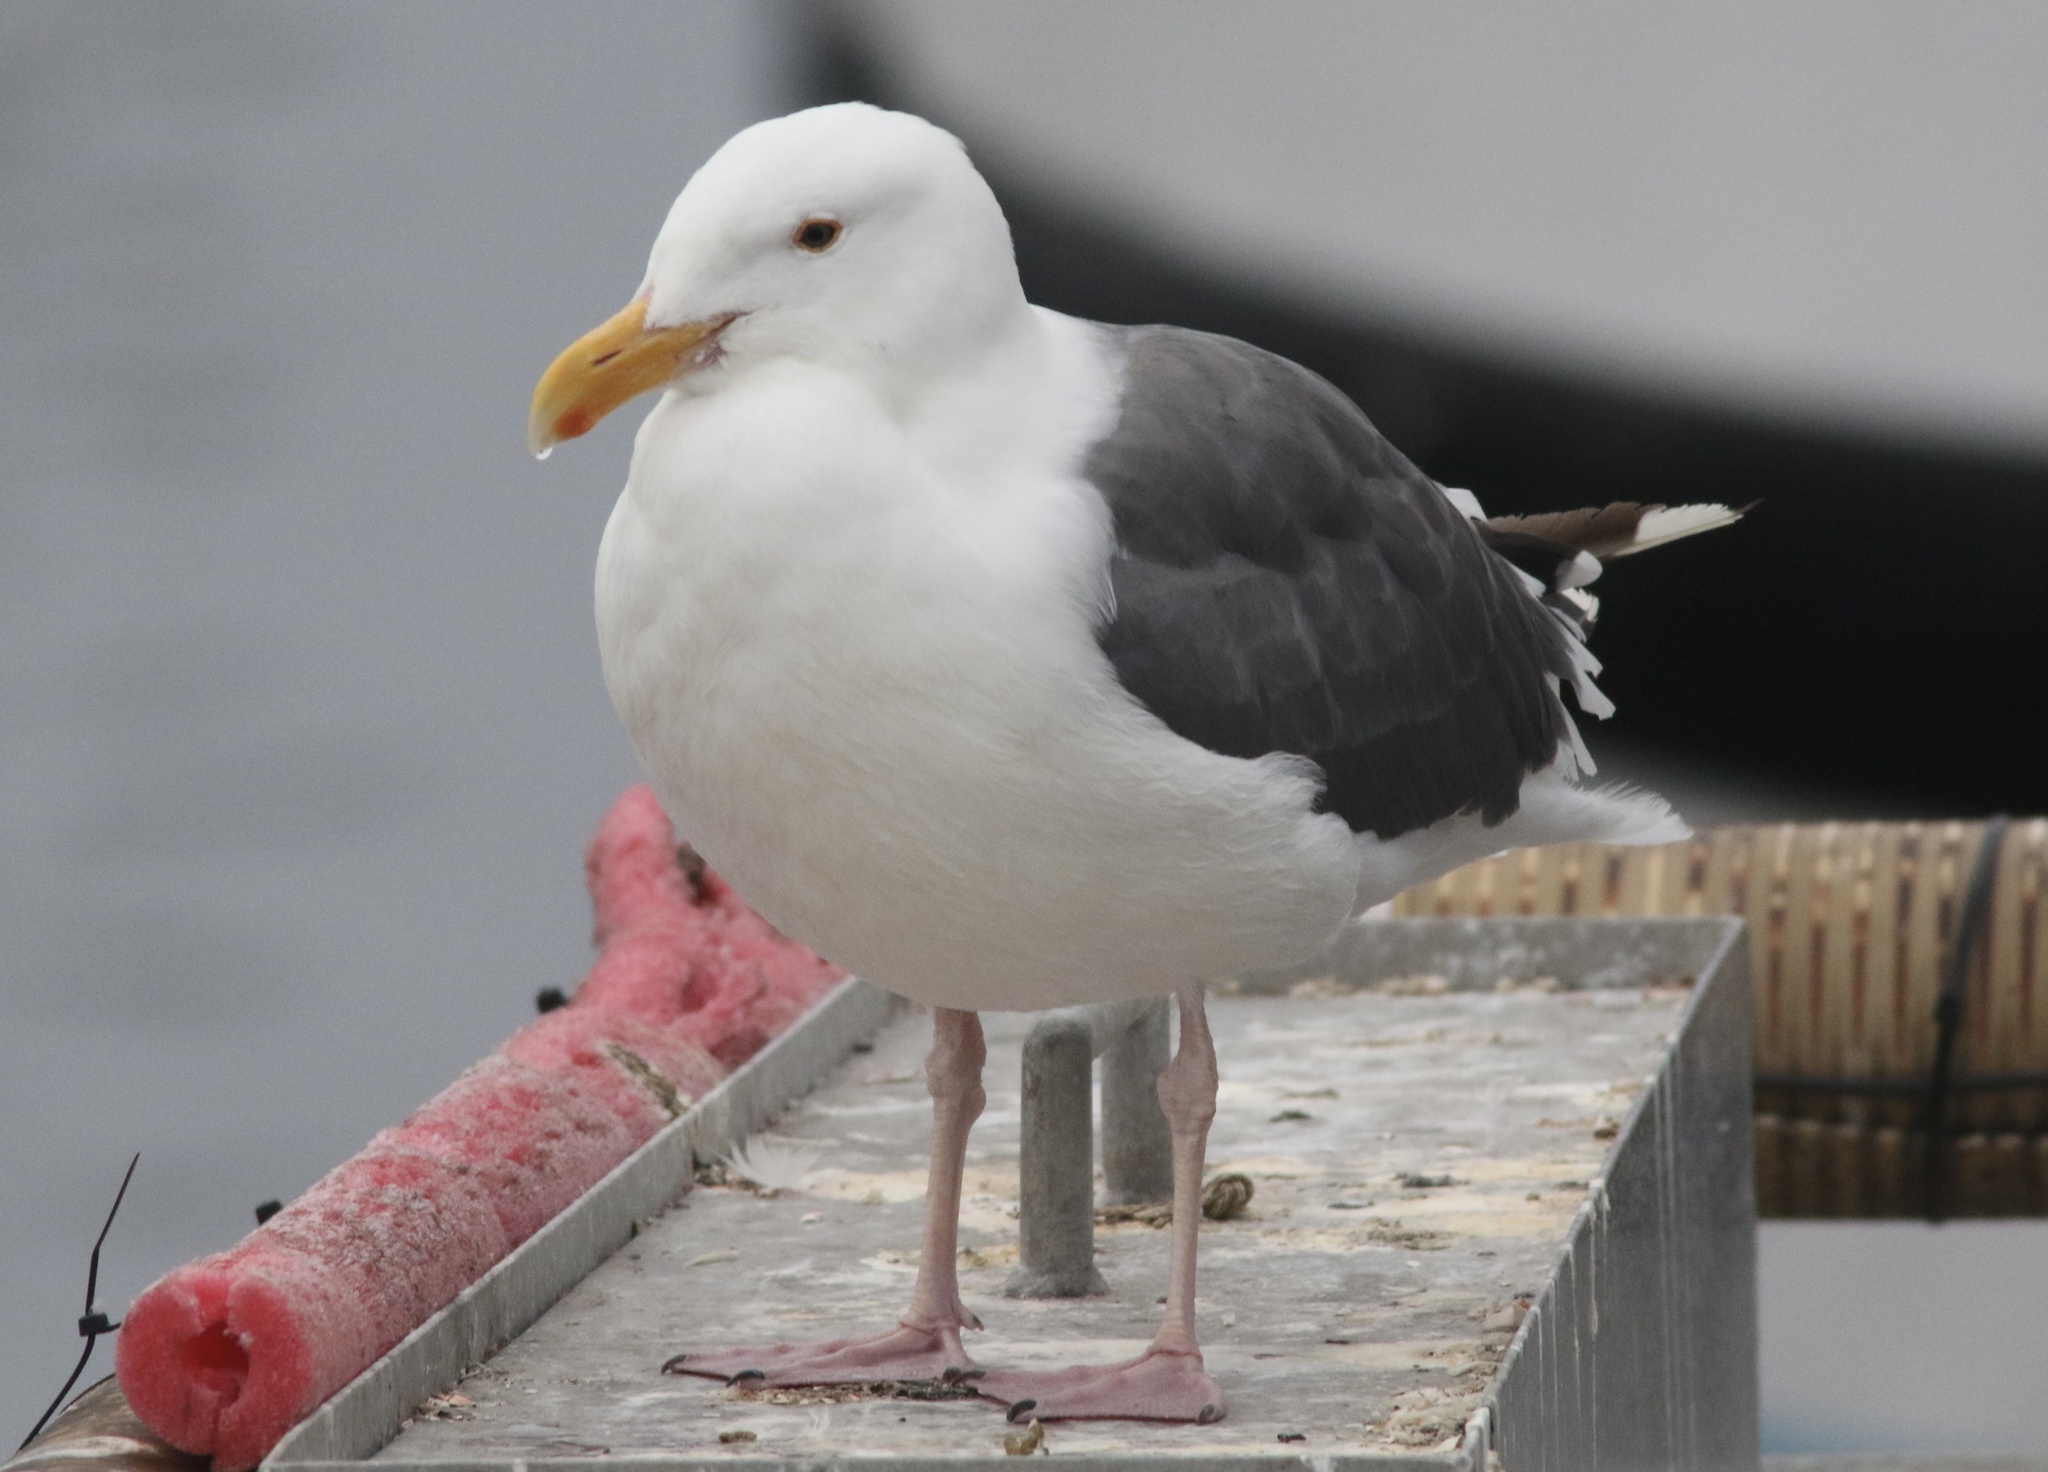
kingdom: Animalia
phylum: Chordata
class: Aves
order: Charadriiformes
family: Laridae
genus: Larus
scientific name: Larus occidentalis
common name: Western gull
